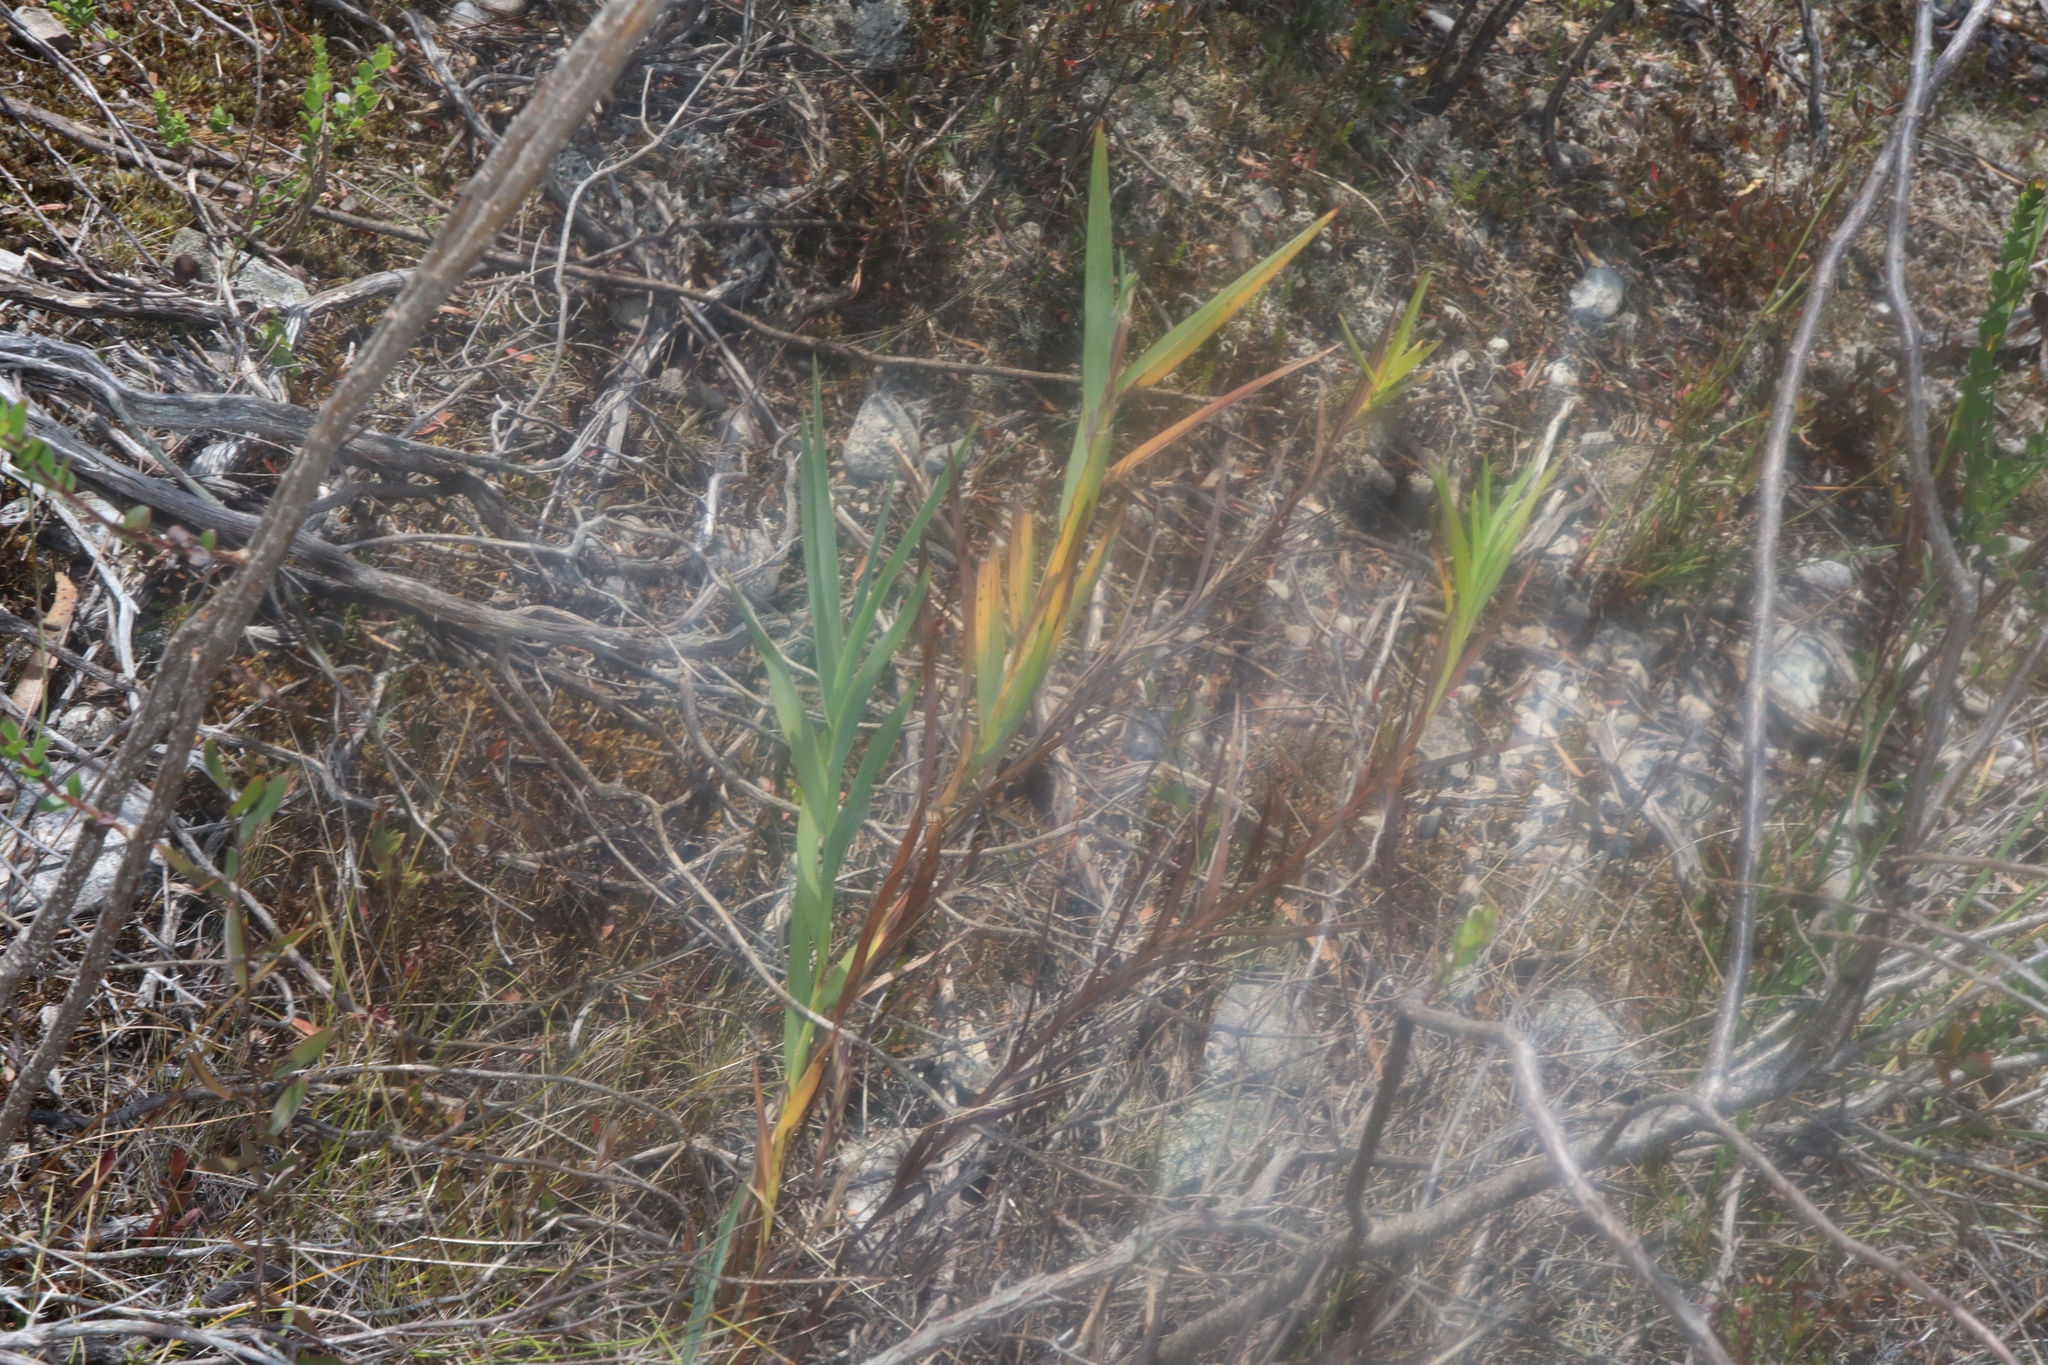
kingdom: Plantae
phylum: Tracheophyta
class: Liliopsida
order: Asparagales
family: Asphodelaceae
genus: Stypandra
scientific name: Stypandra glauca
